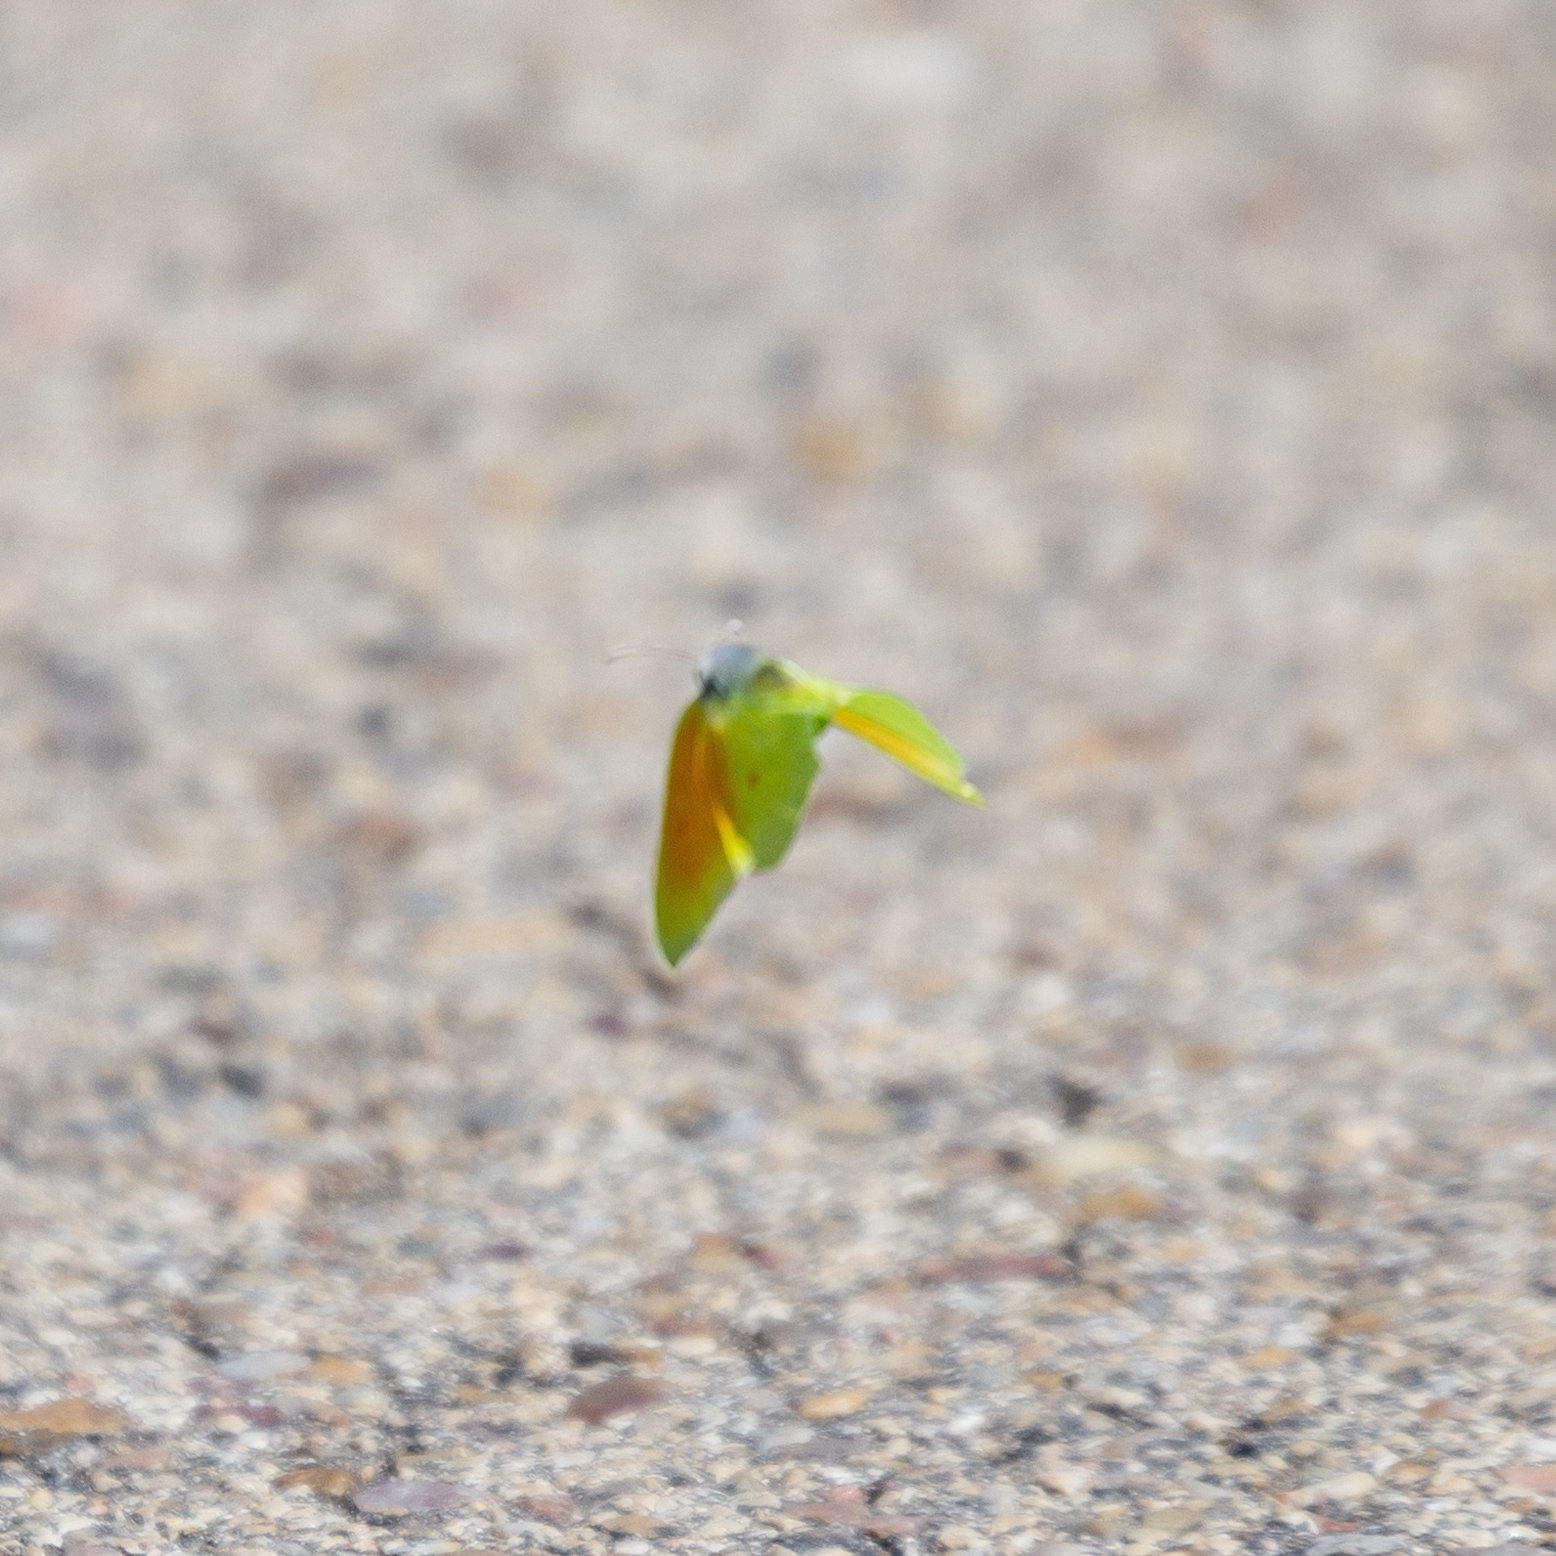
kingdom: Animalia
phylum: Arthropoda
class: Insecta
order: Lepidoptera
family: Pieridae
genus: Gonepteryx
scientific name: Gonepteryx cleopatra
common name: Cleopatra
